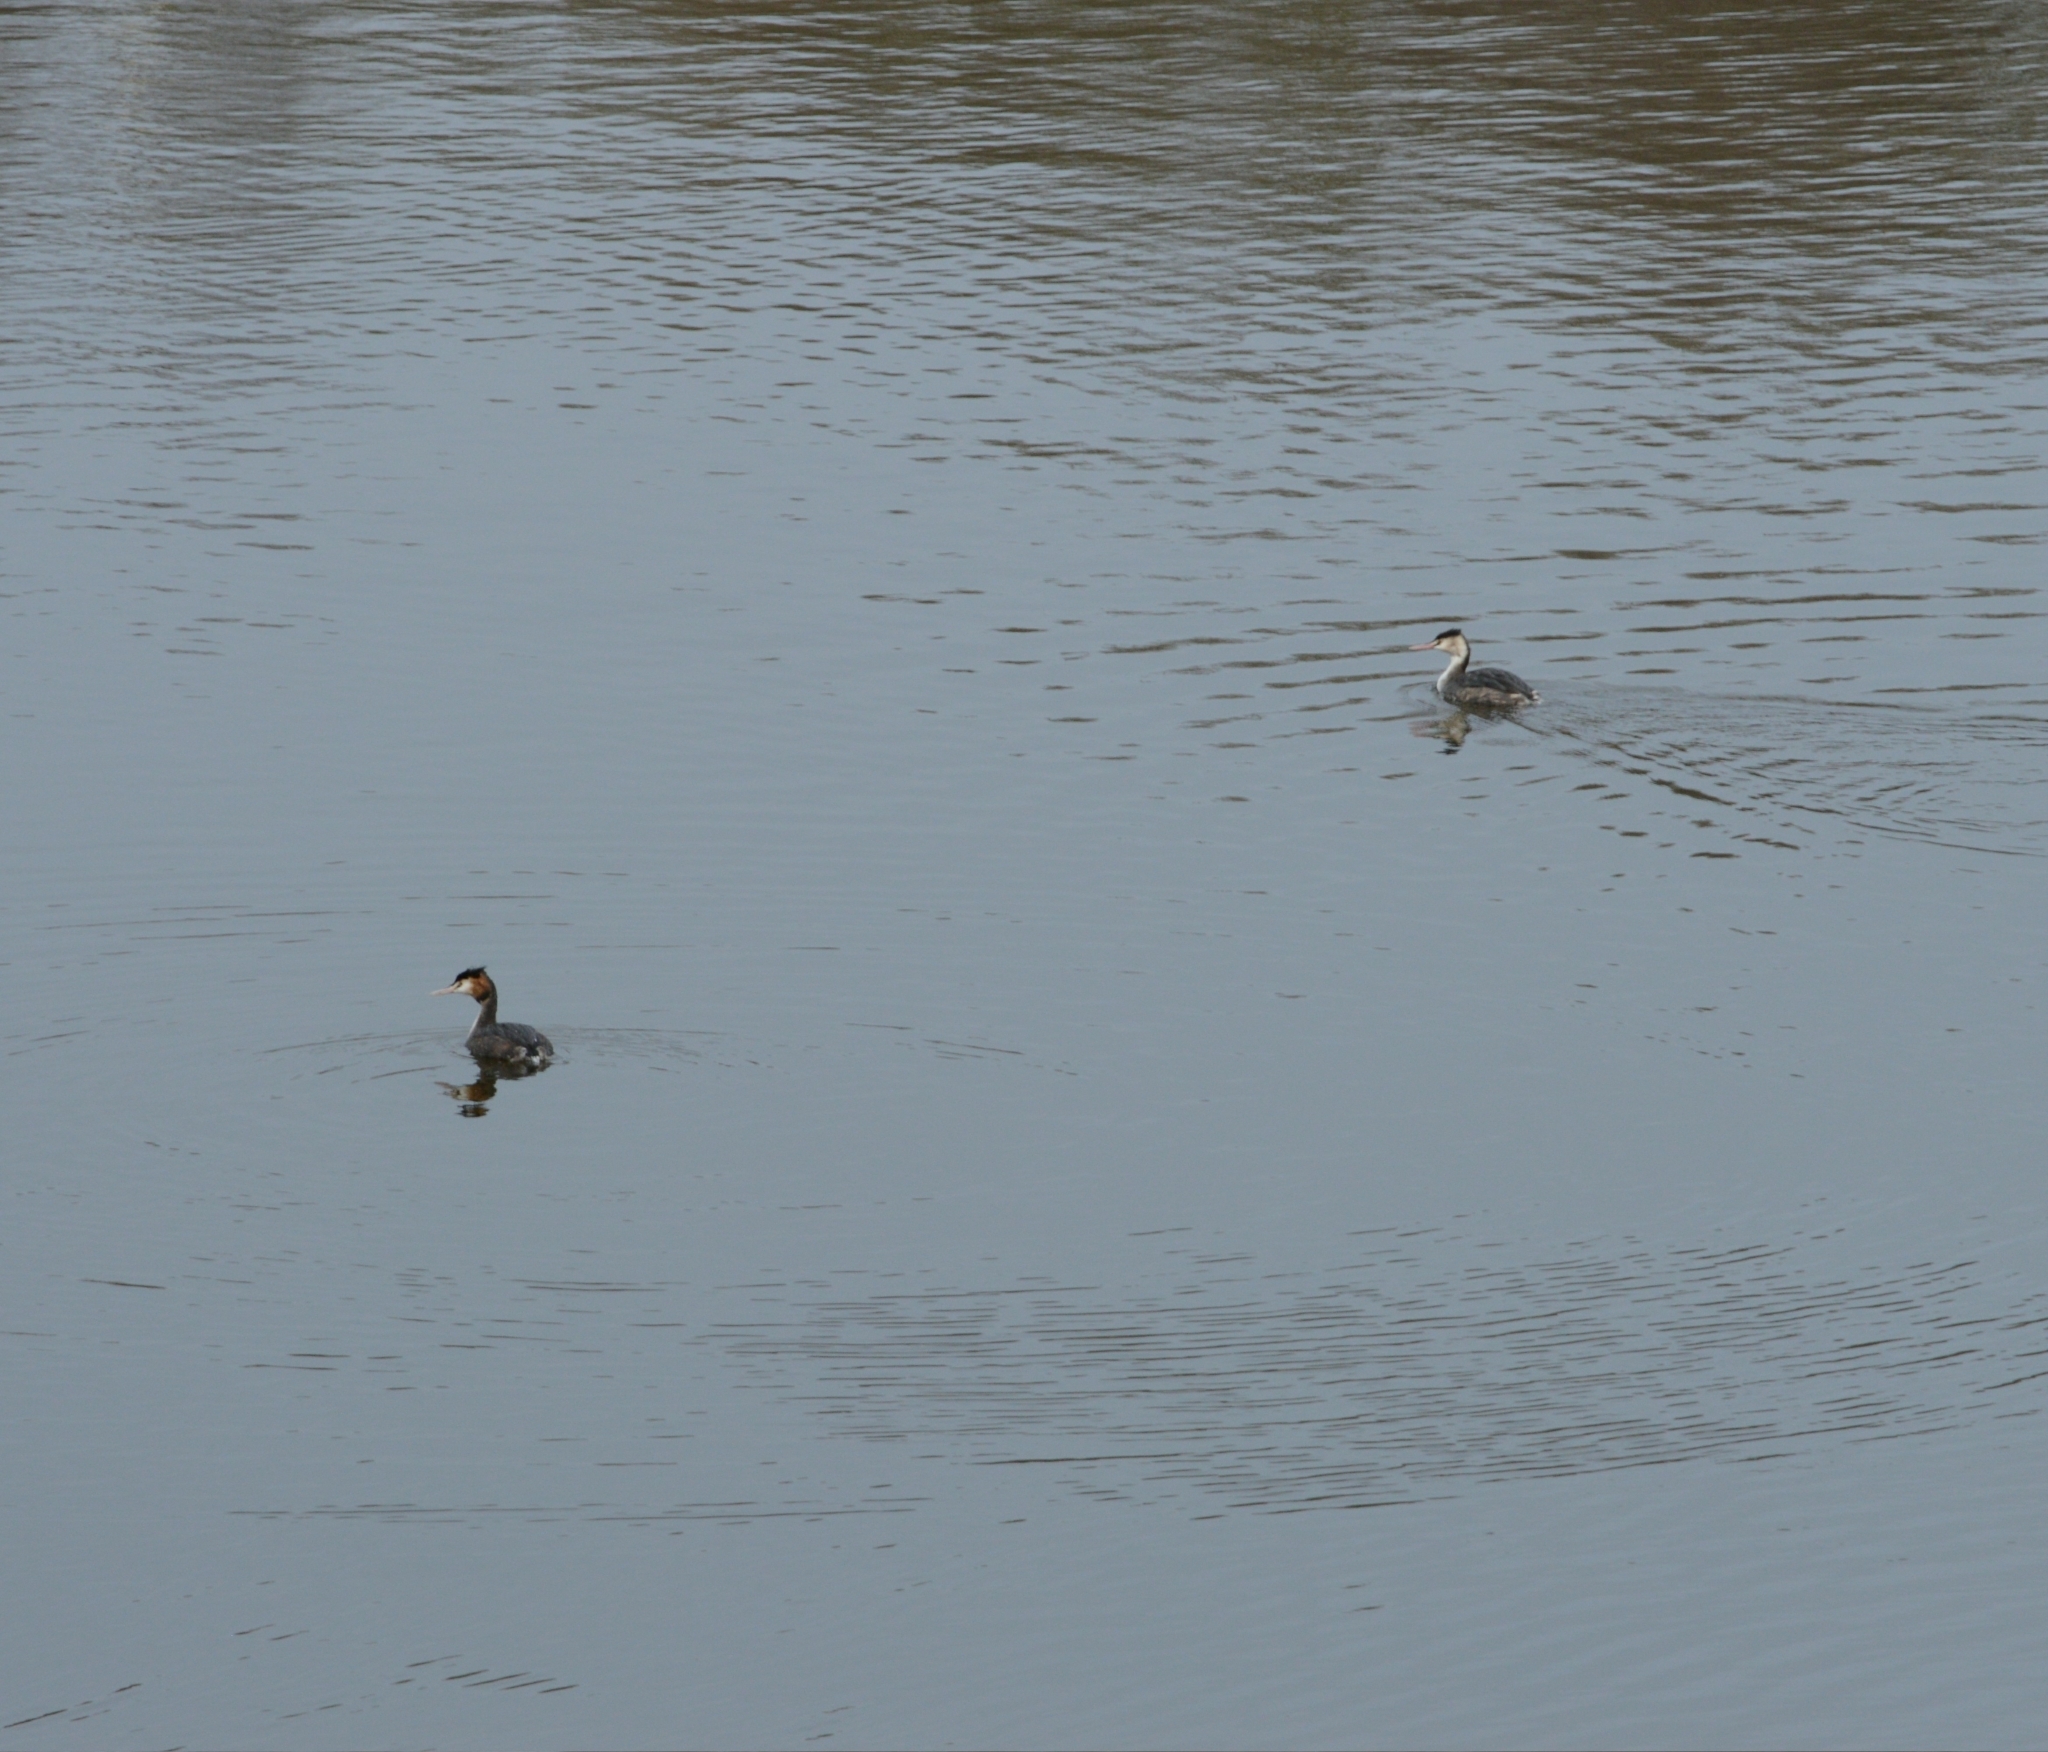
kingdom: Animalia
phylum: Chordata
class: Aves
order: Podicipediformes
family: Podicipedidae
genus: Podiceps
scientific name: Podiceps cristatus
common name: Great crested grebe
